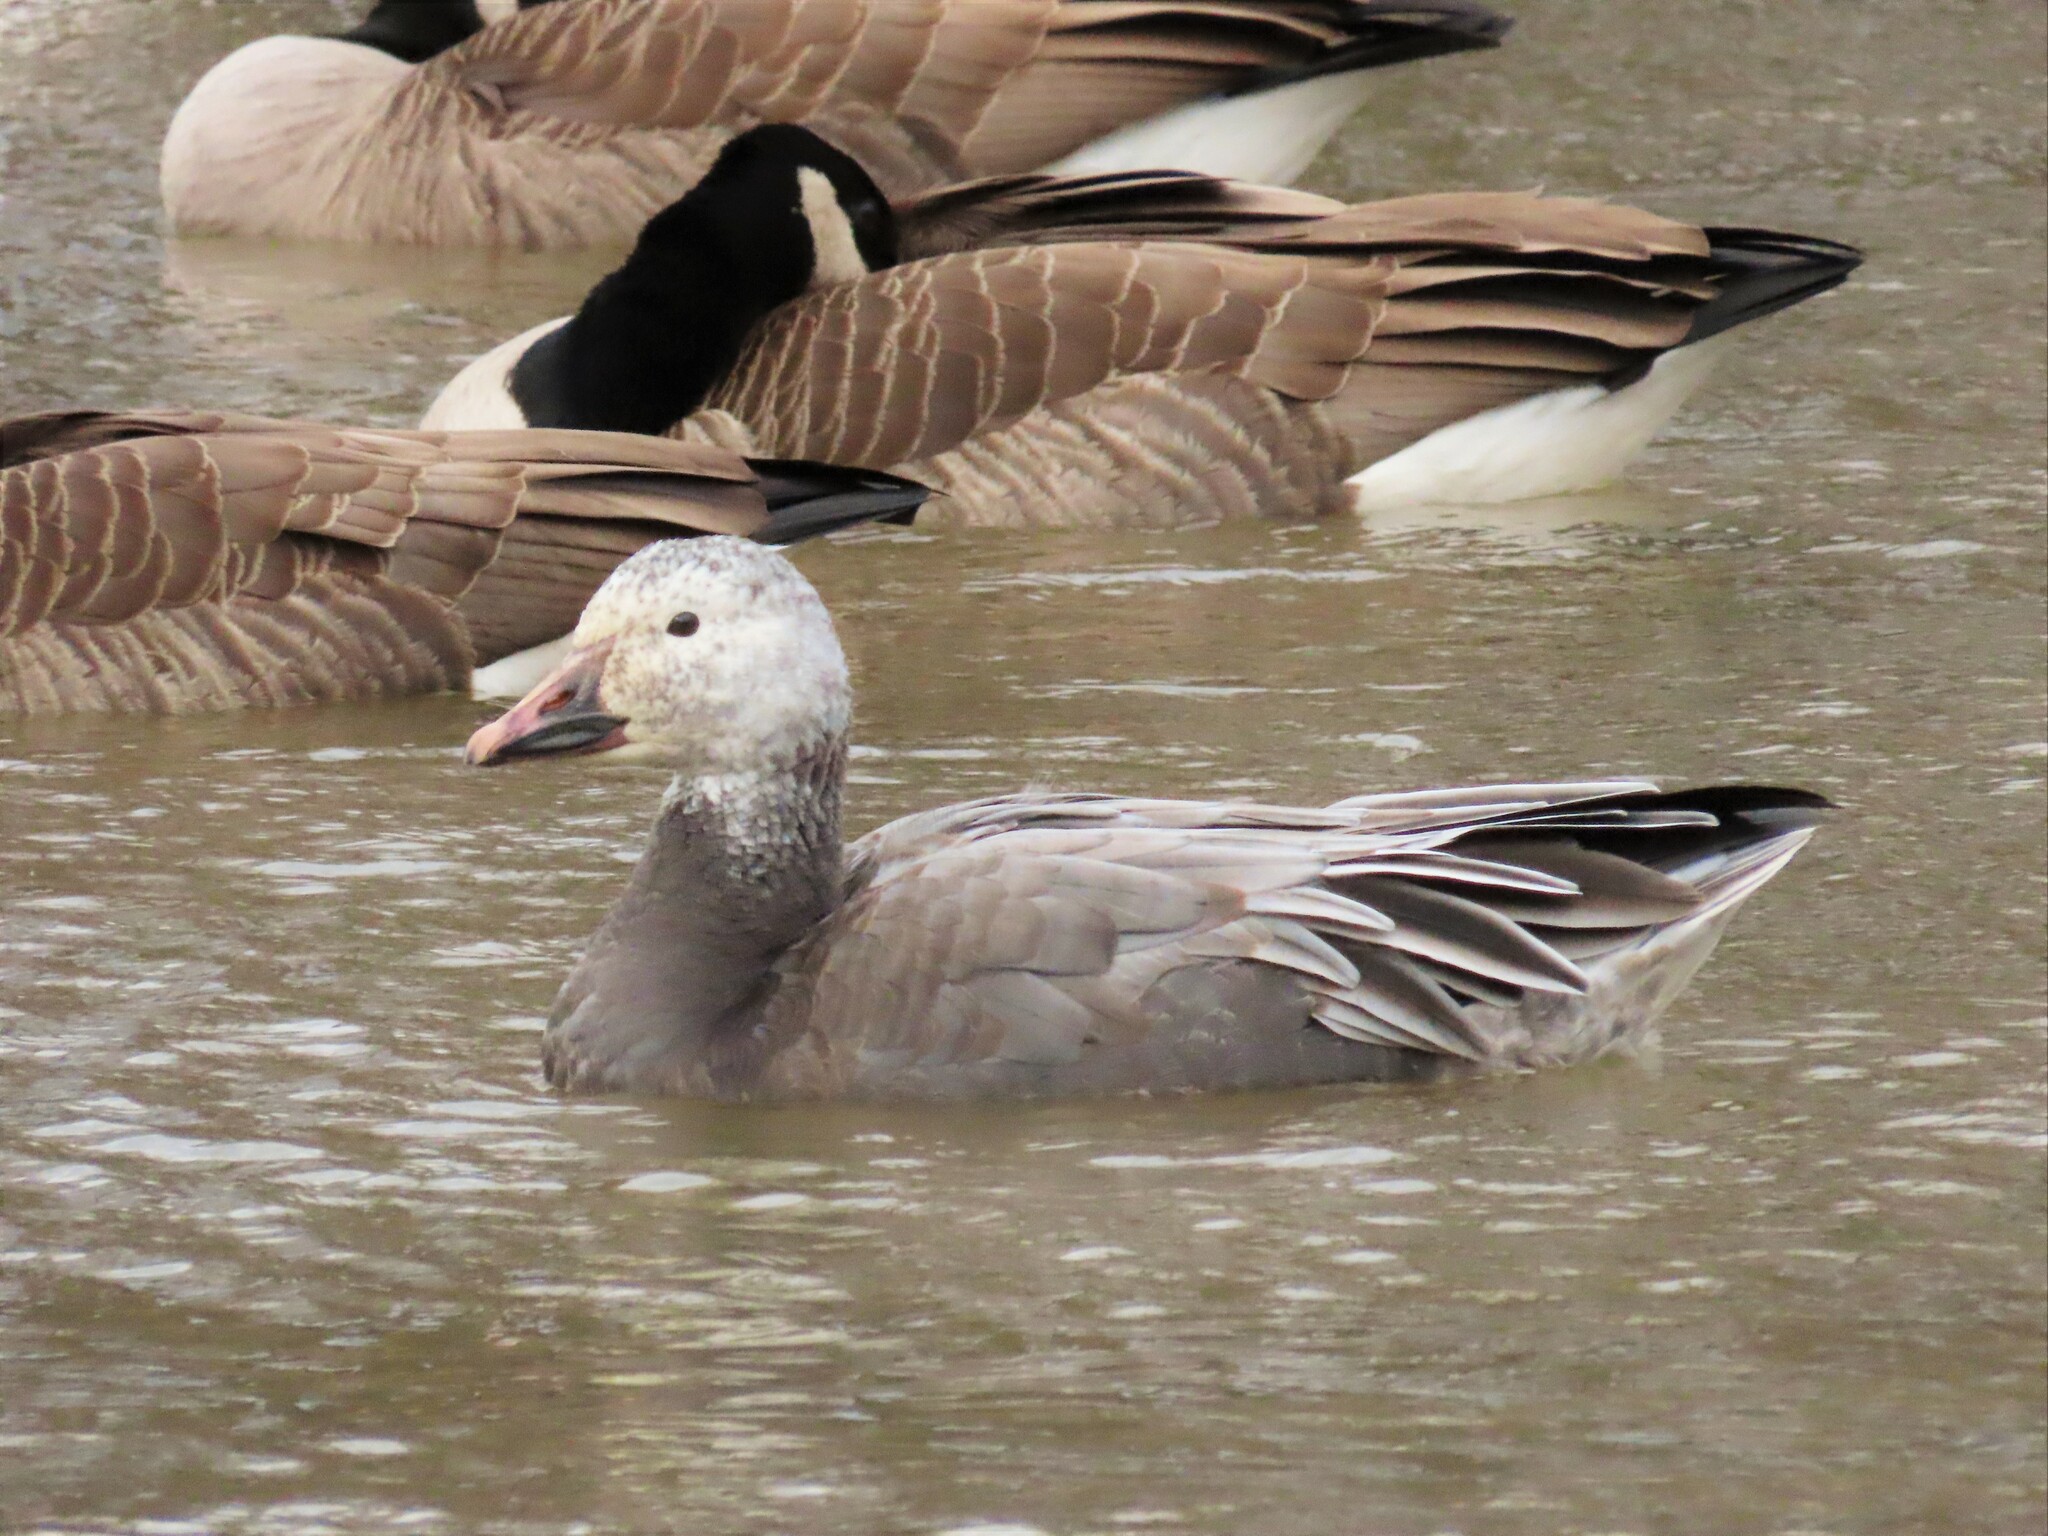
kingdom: Animalia
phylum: Chordata
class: Aves
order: Anseriformes
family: Anatidae
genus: Anser
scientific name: Anser caerulescens
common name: Snow goose
